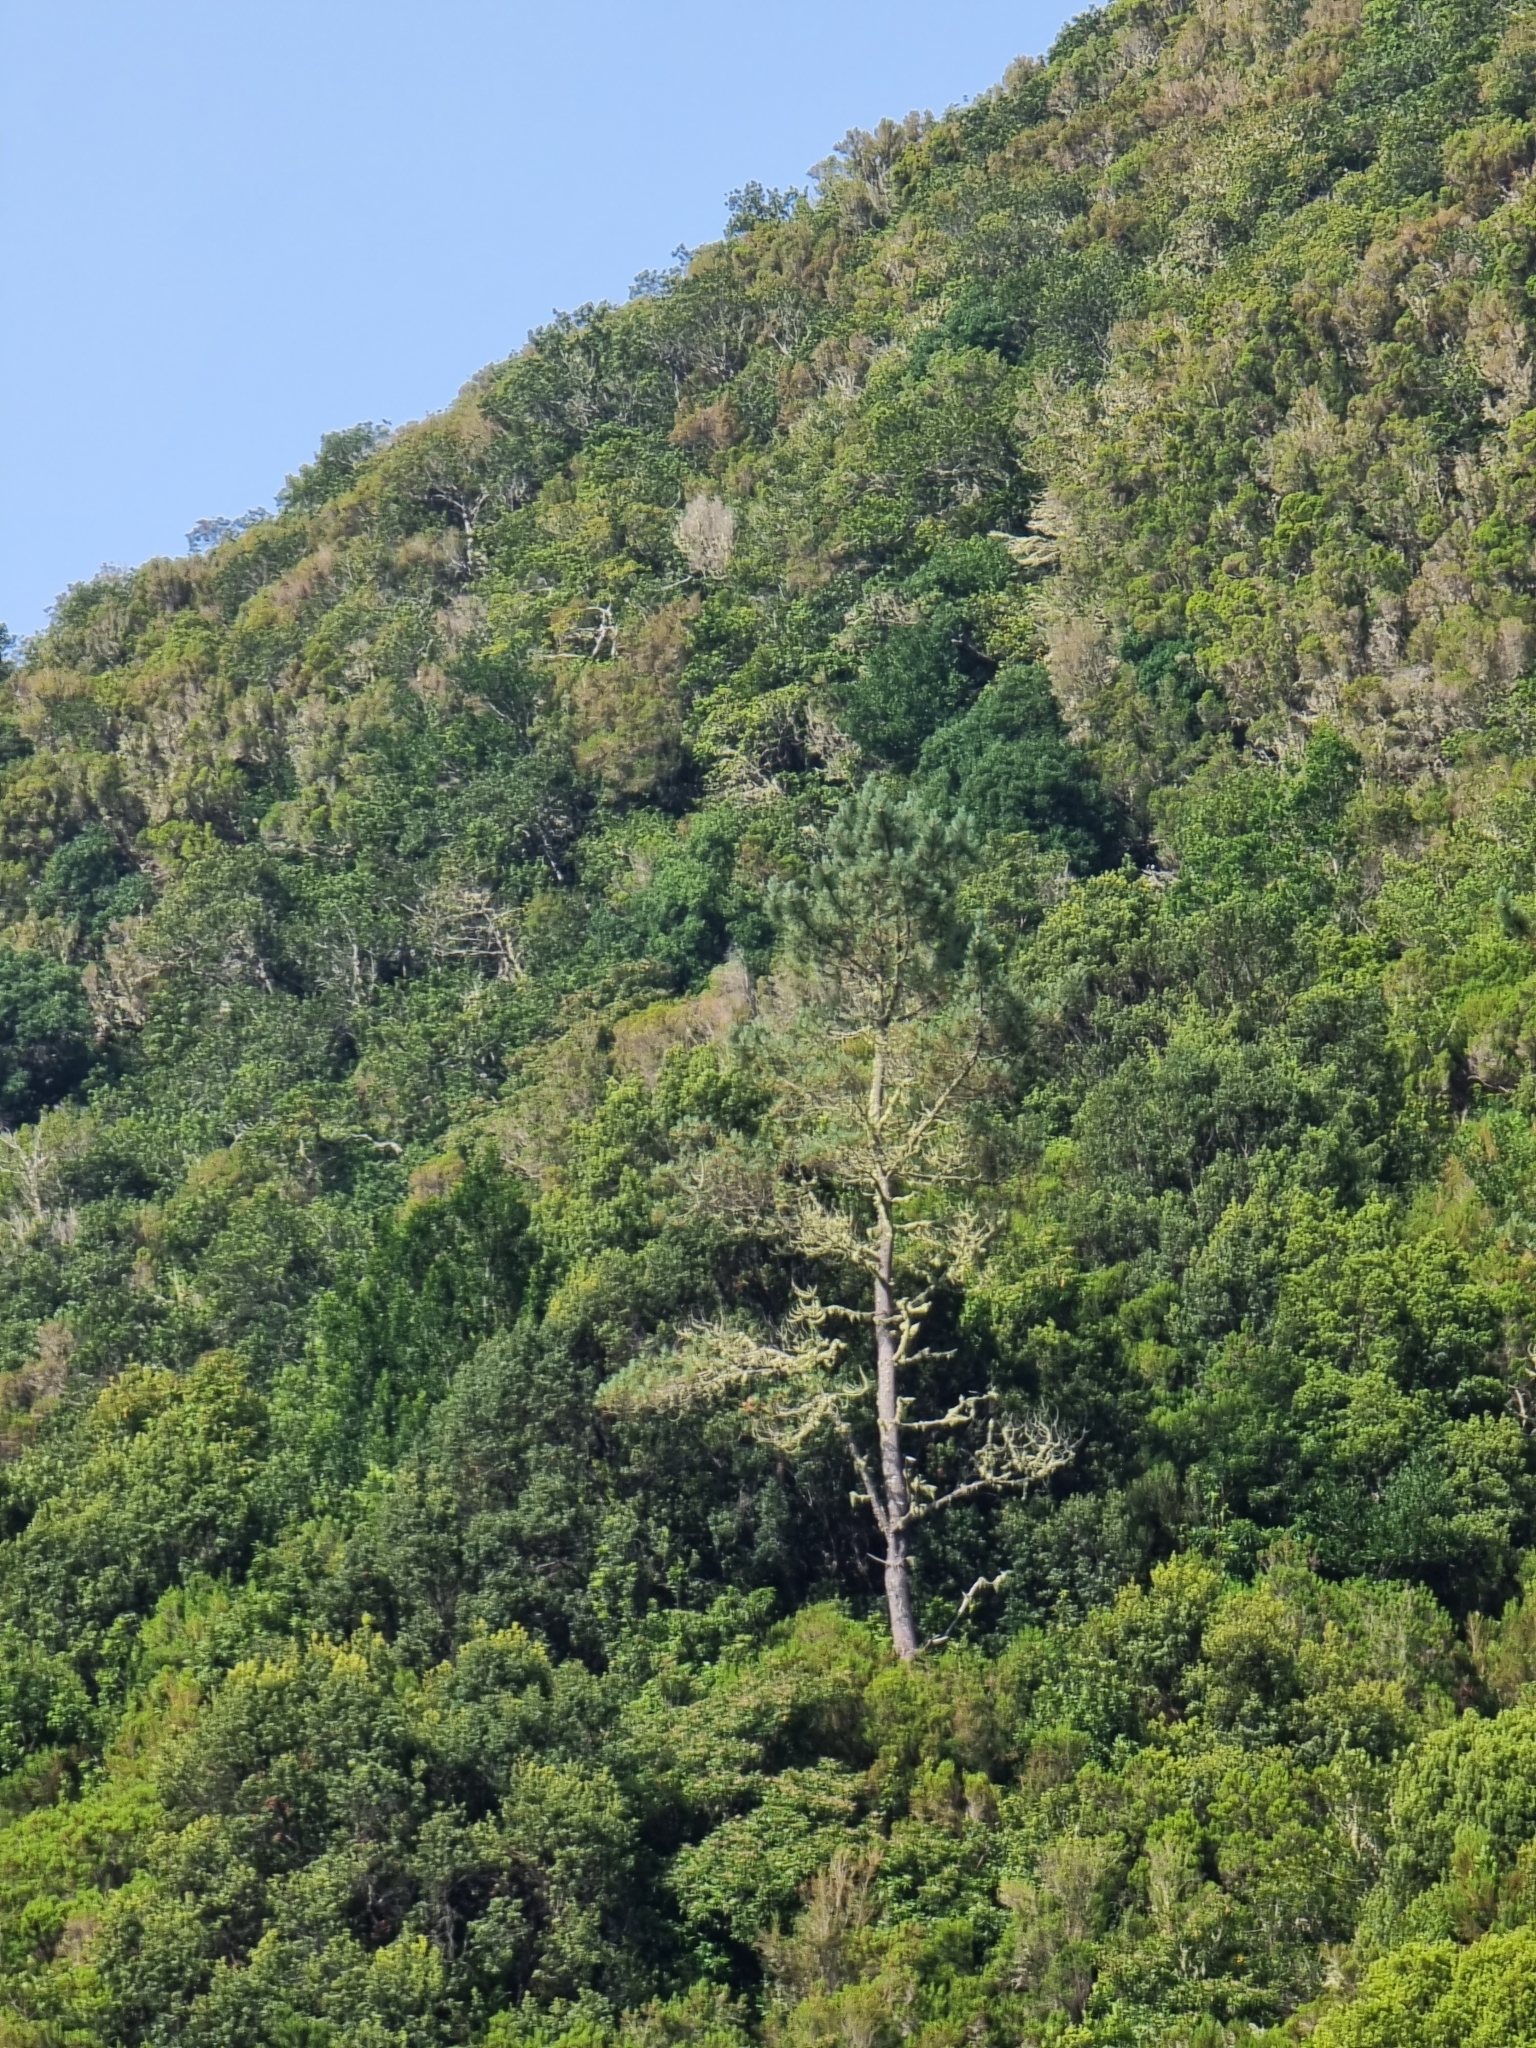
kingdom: Plantae
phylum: Tracheophyta
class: Pinopsida
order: Pinales
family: Pinaceae
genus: Pinus
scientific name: Pinus pinaster
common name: Maritime pine
